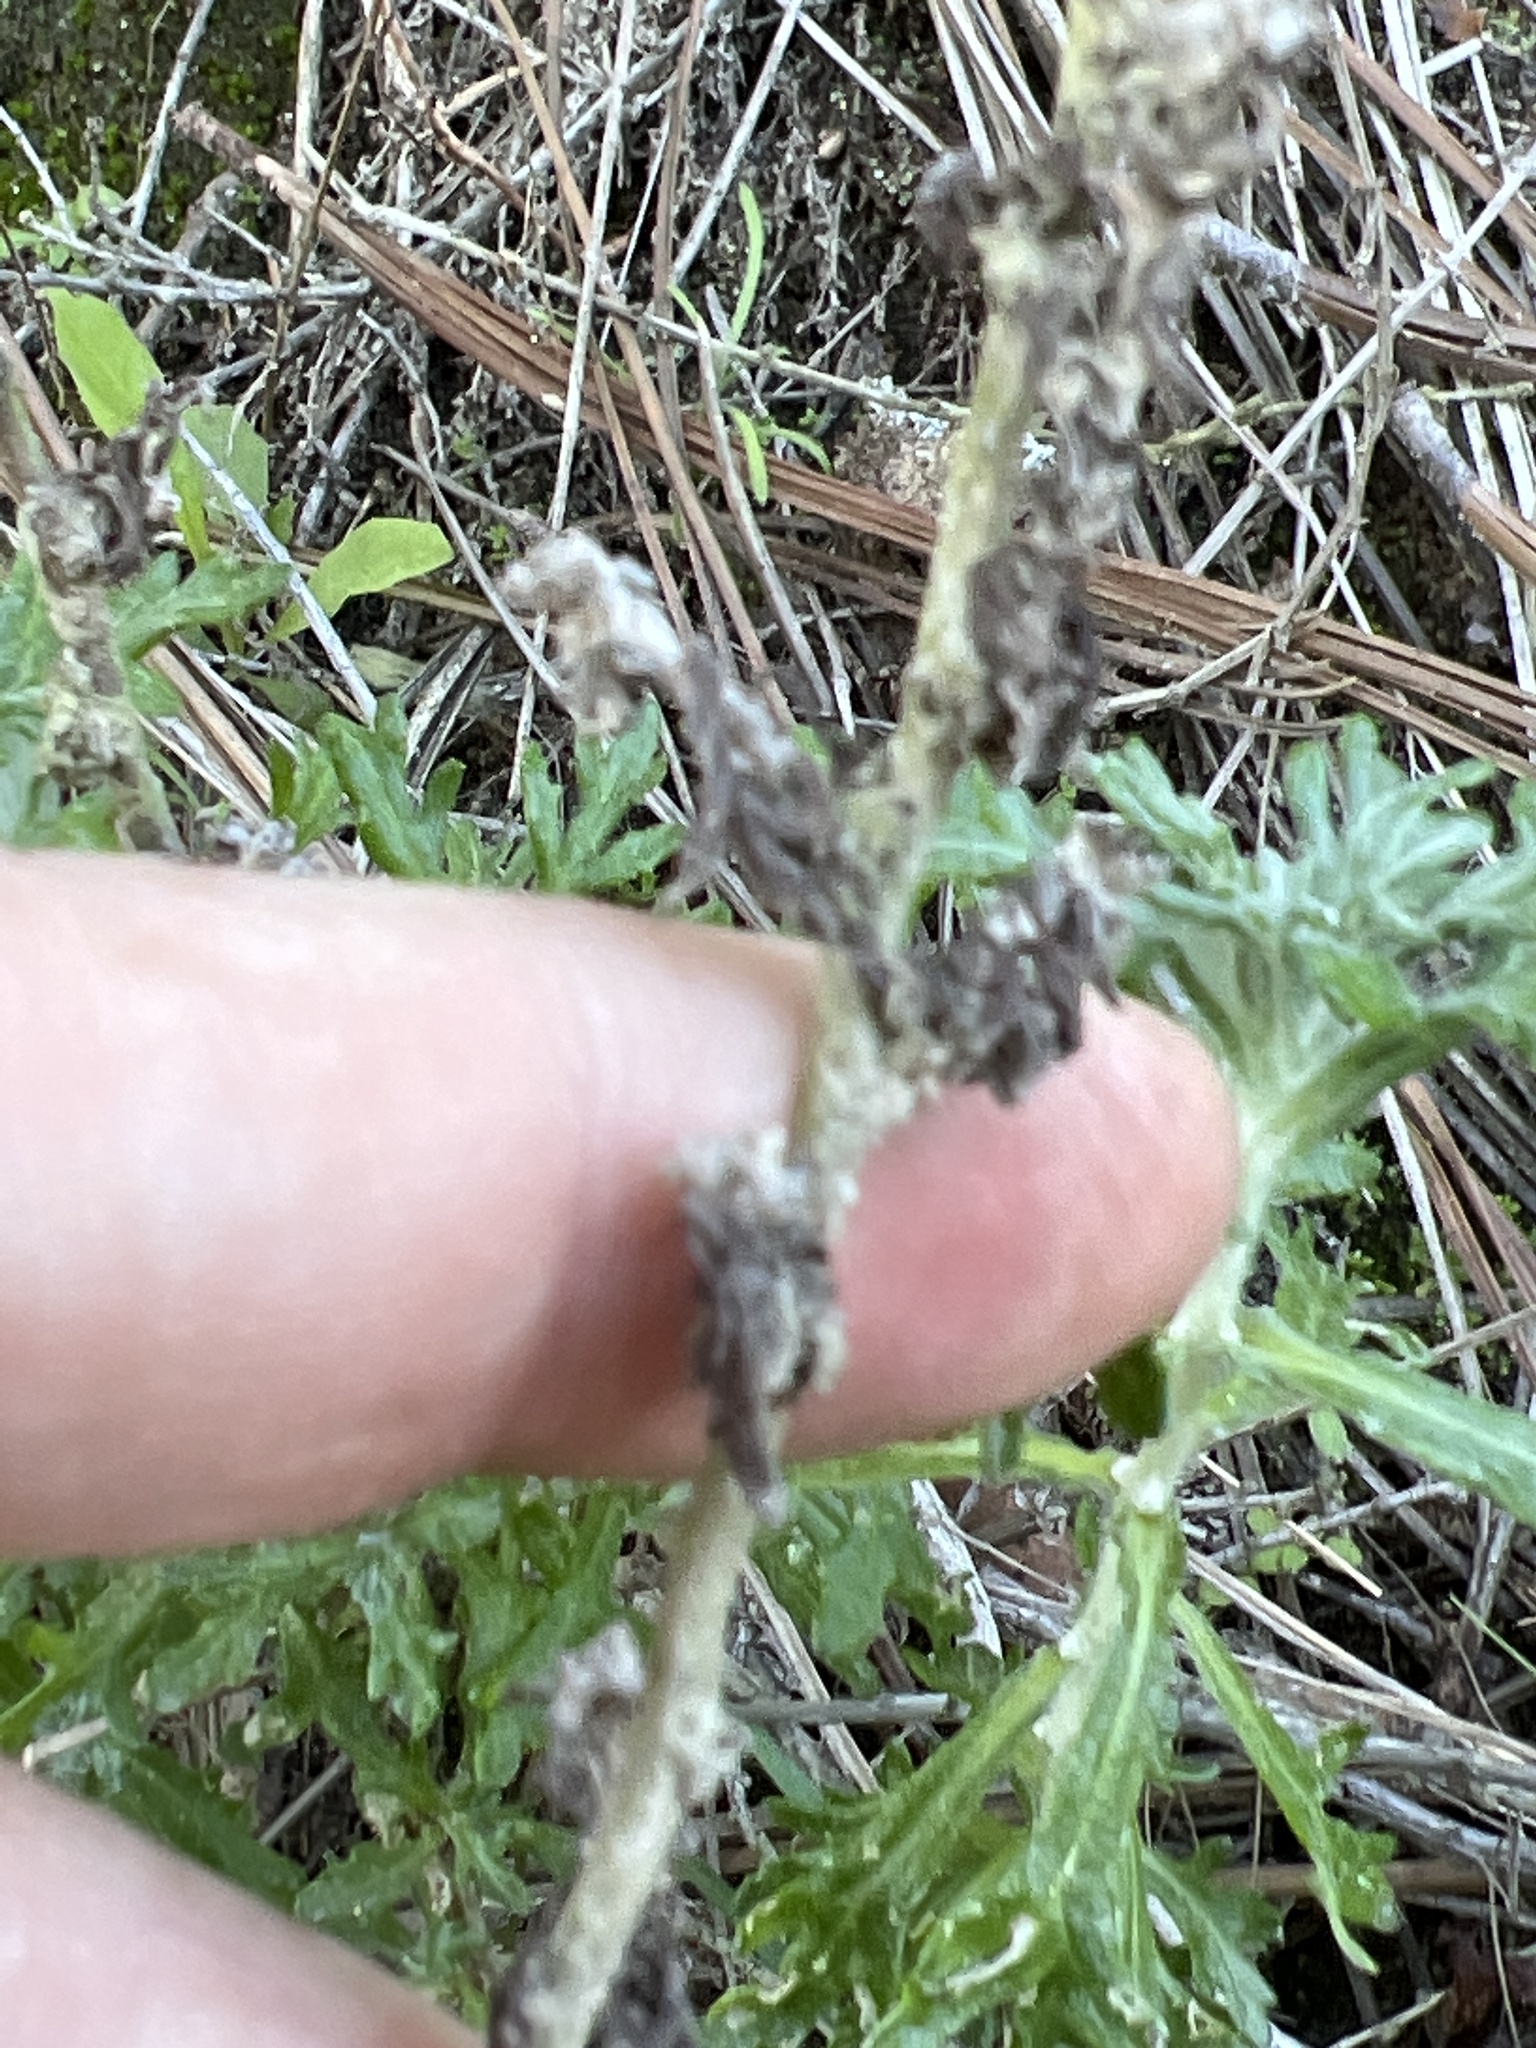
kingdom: Plantae
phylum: Tracheophyta
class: Magnoliopsida
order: Asterales
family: Asteraceae
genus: Eriophyllum
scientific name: Eriophyllum confertiflorum
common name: Golden-yarrow
